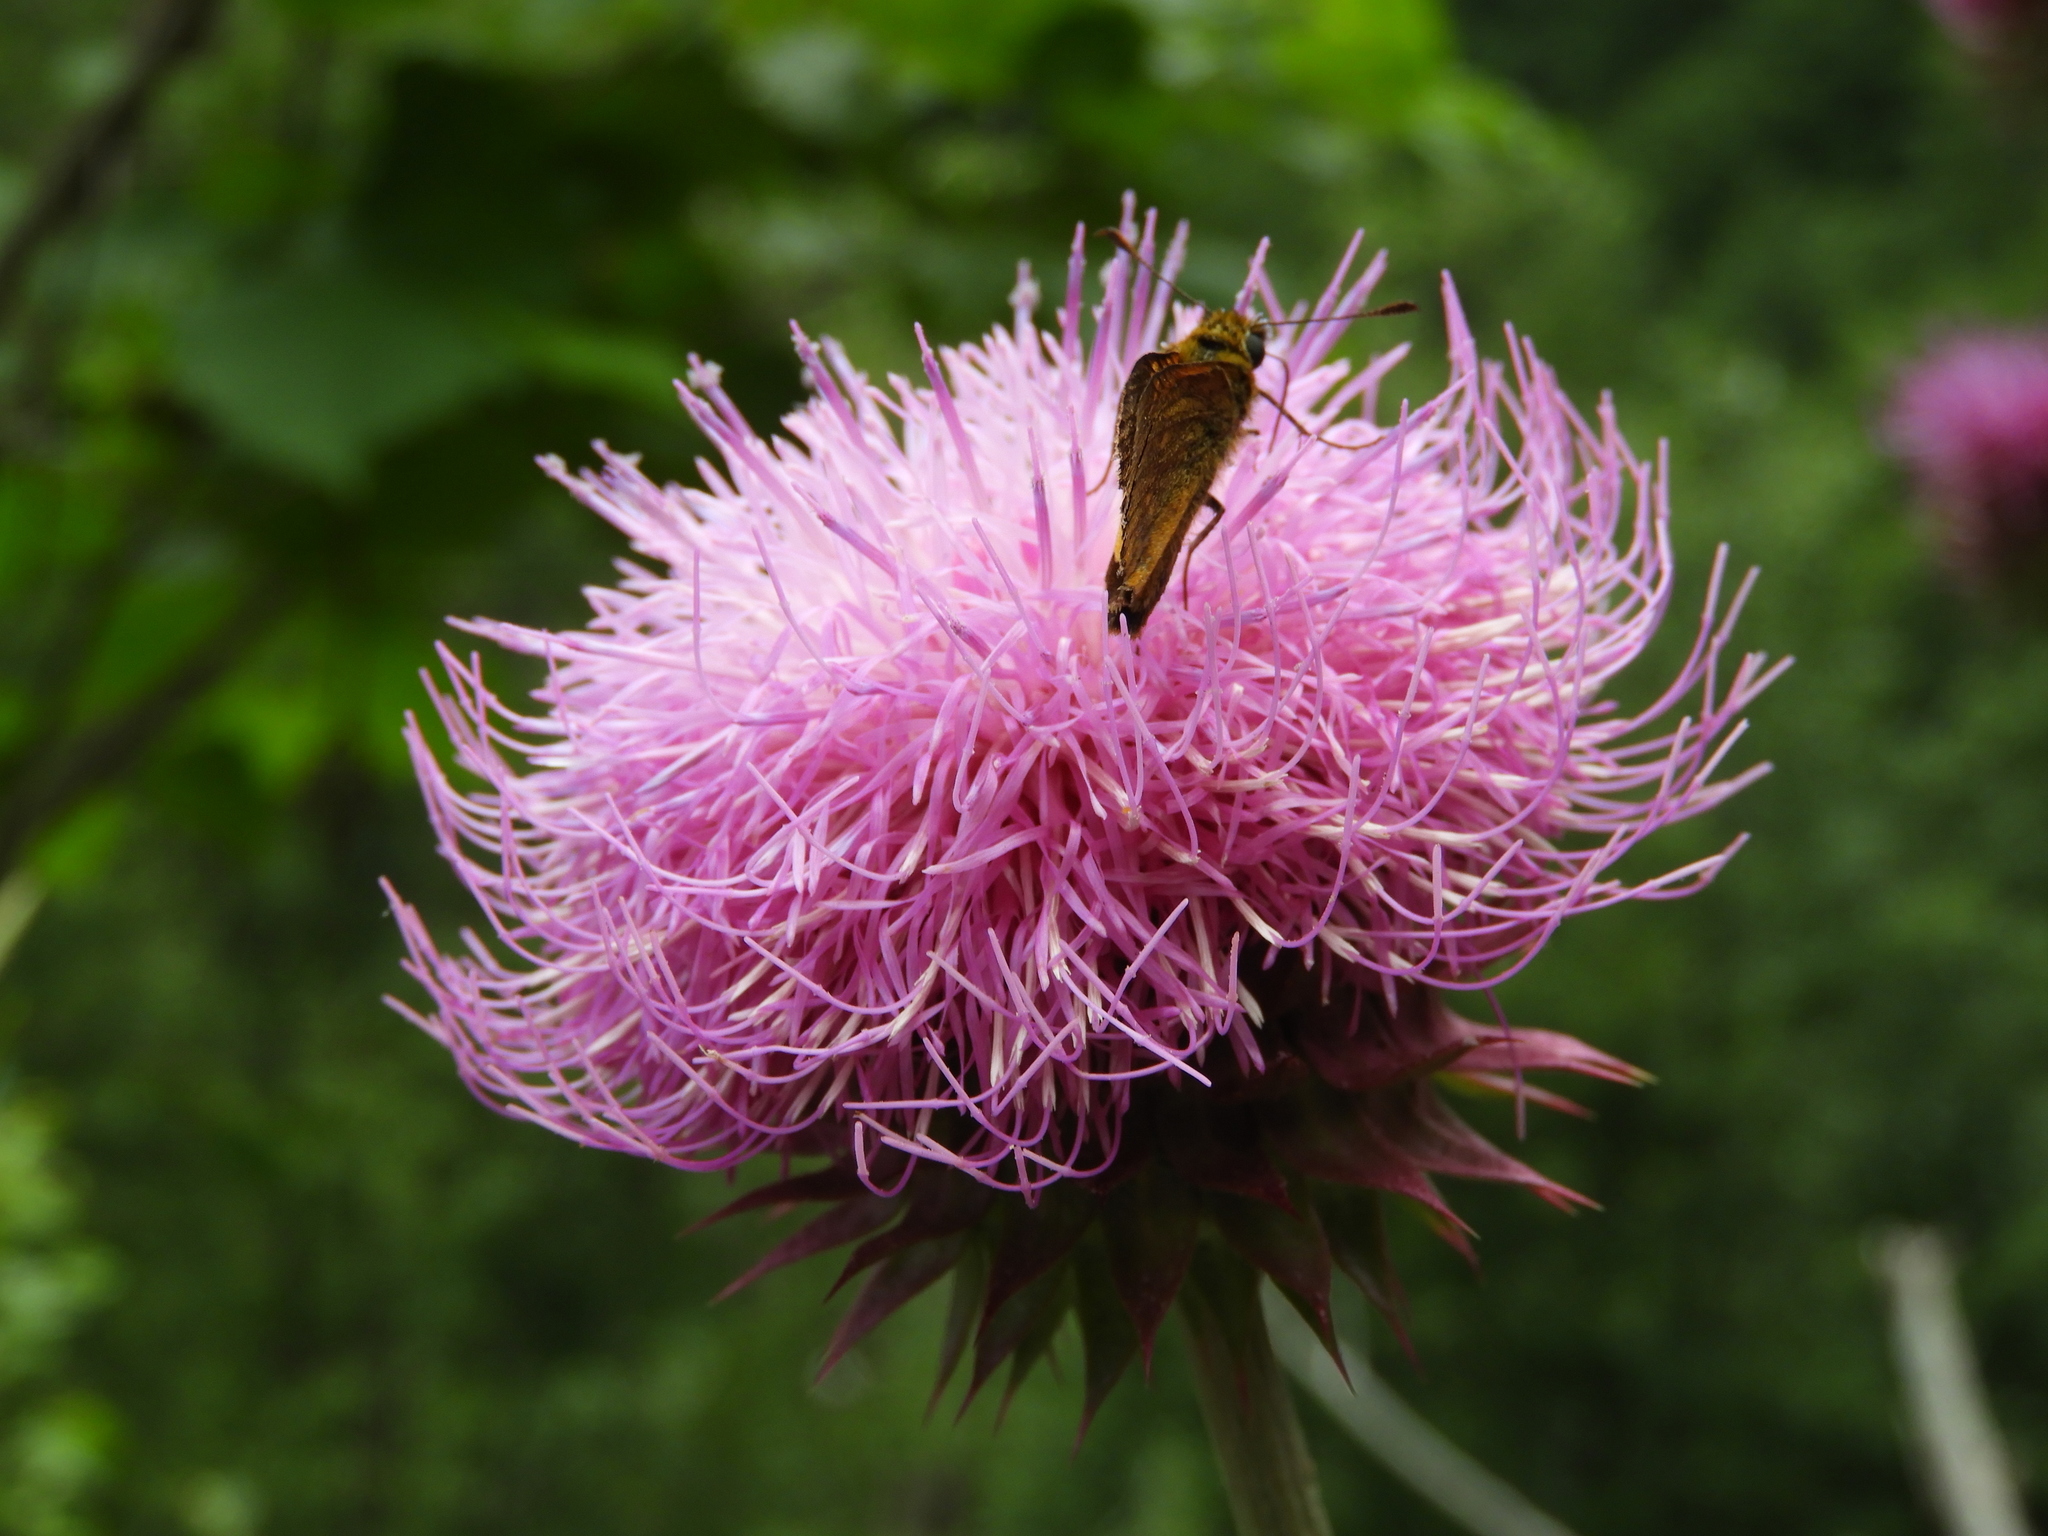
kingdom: Animalia
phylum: Arthropoda
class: Insecta
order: Lepidoptera
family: Hesperiidae
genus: Ochlodes
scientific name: Ochlodes venata
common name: Large skipper
